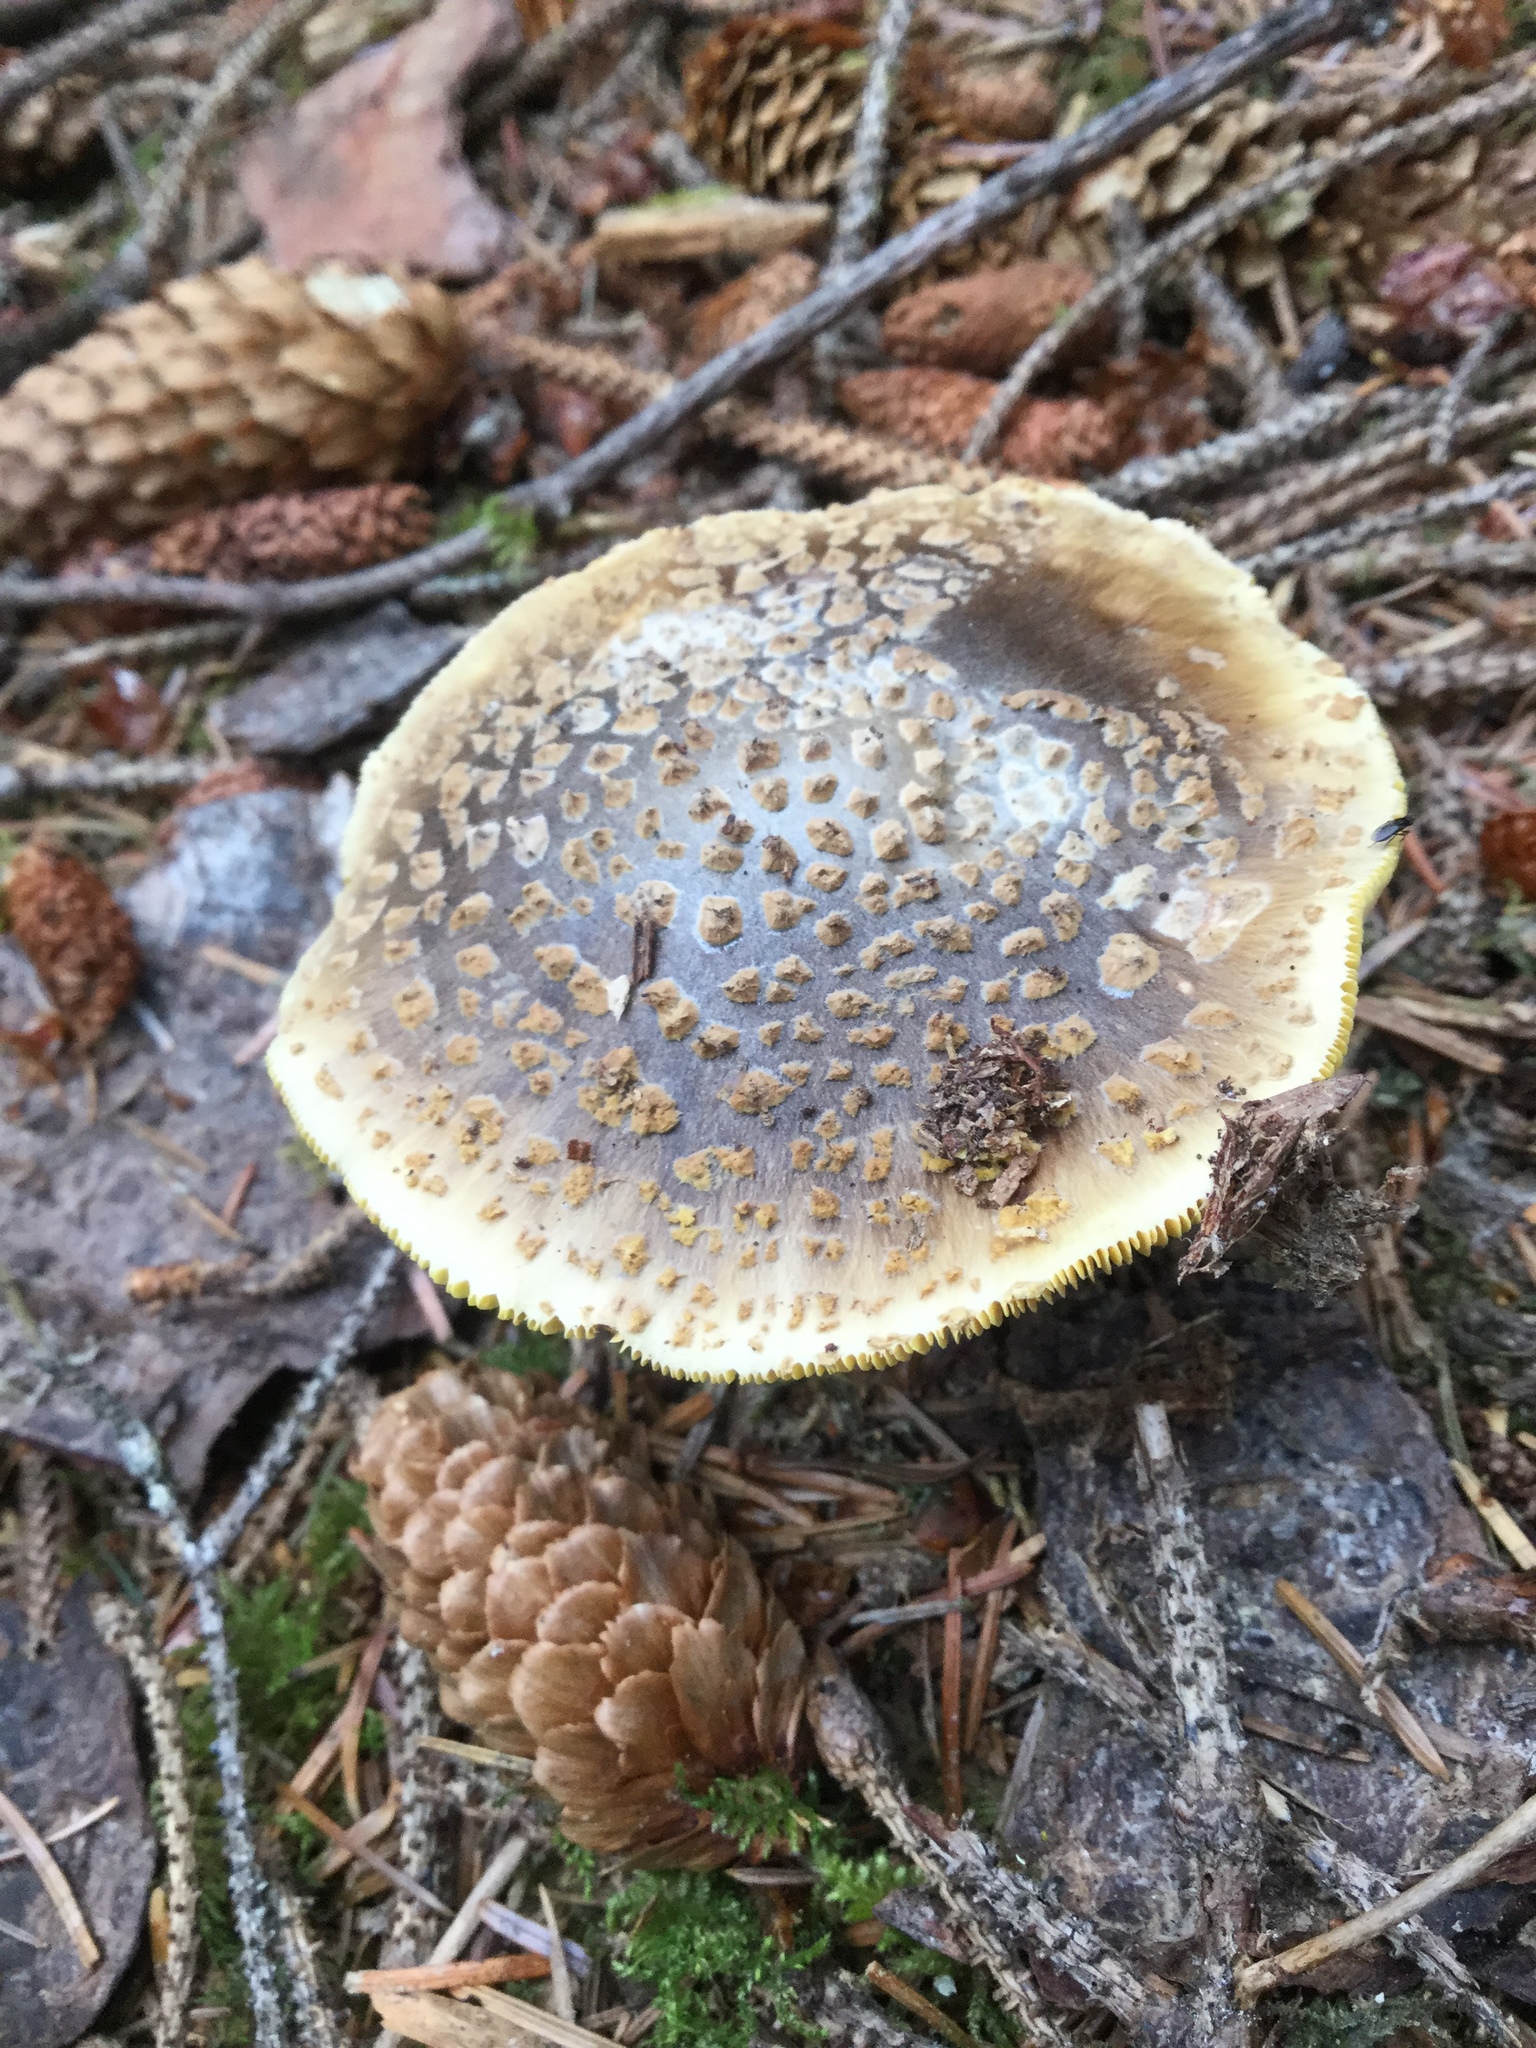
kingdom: Fungi
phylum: Basidiomycota
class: Agaricomycetes
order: Agaricales
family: Amanitaceae
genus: Amanita
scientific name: Amanita augusta
